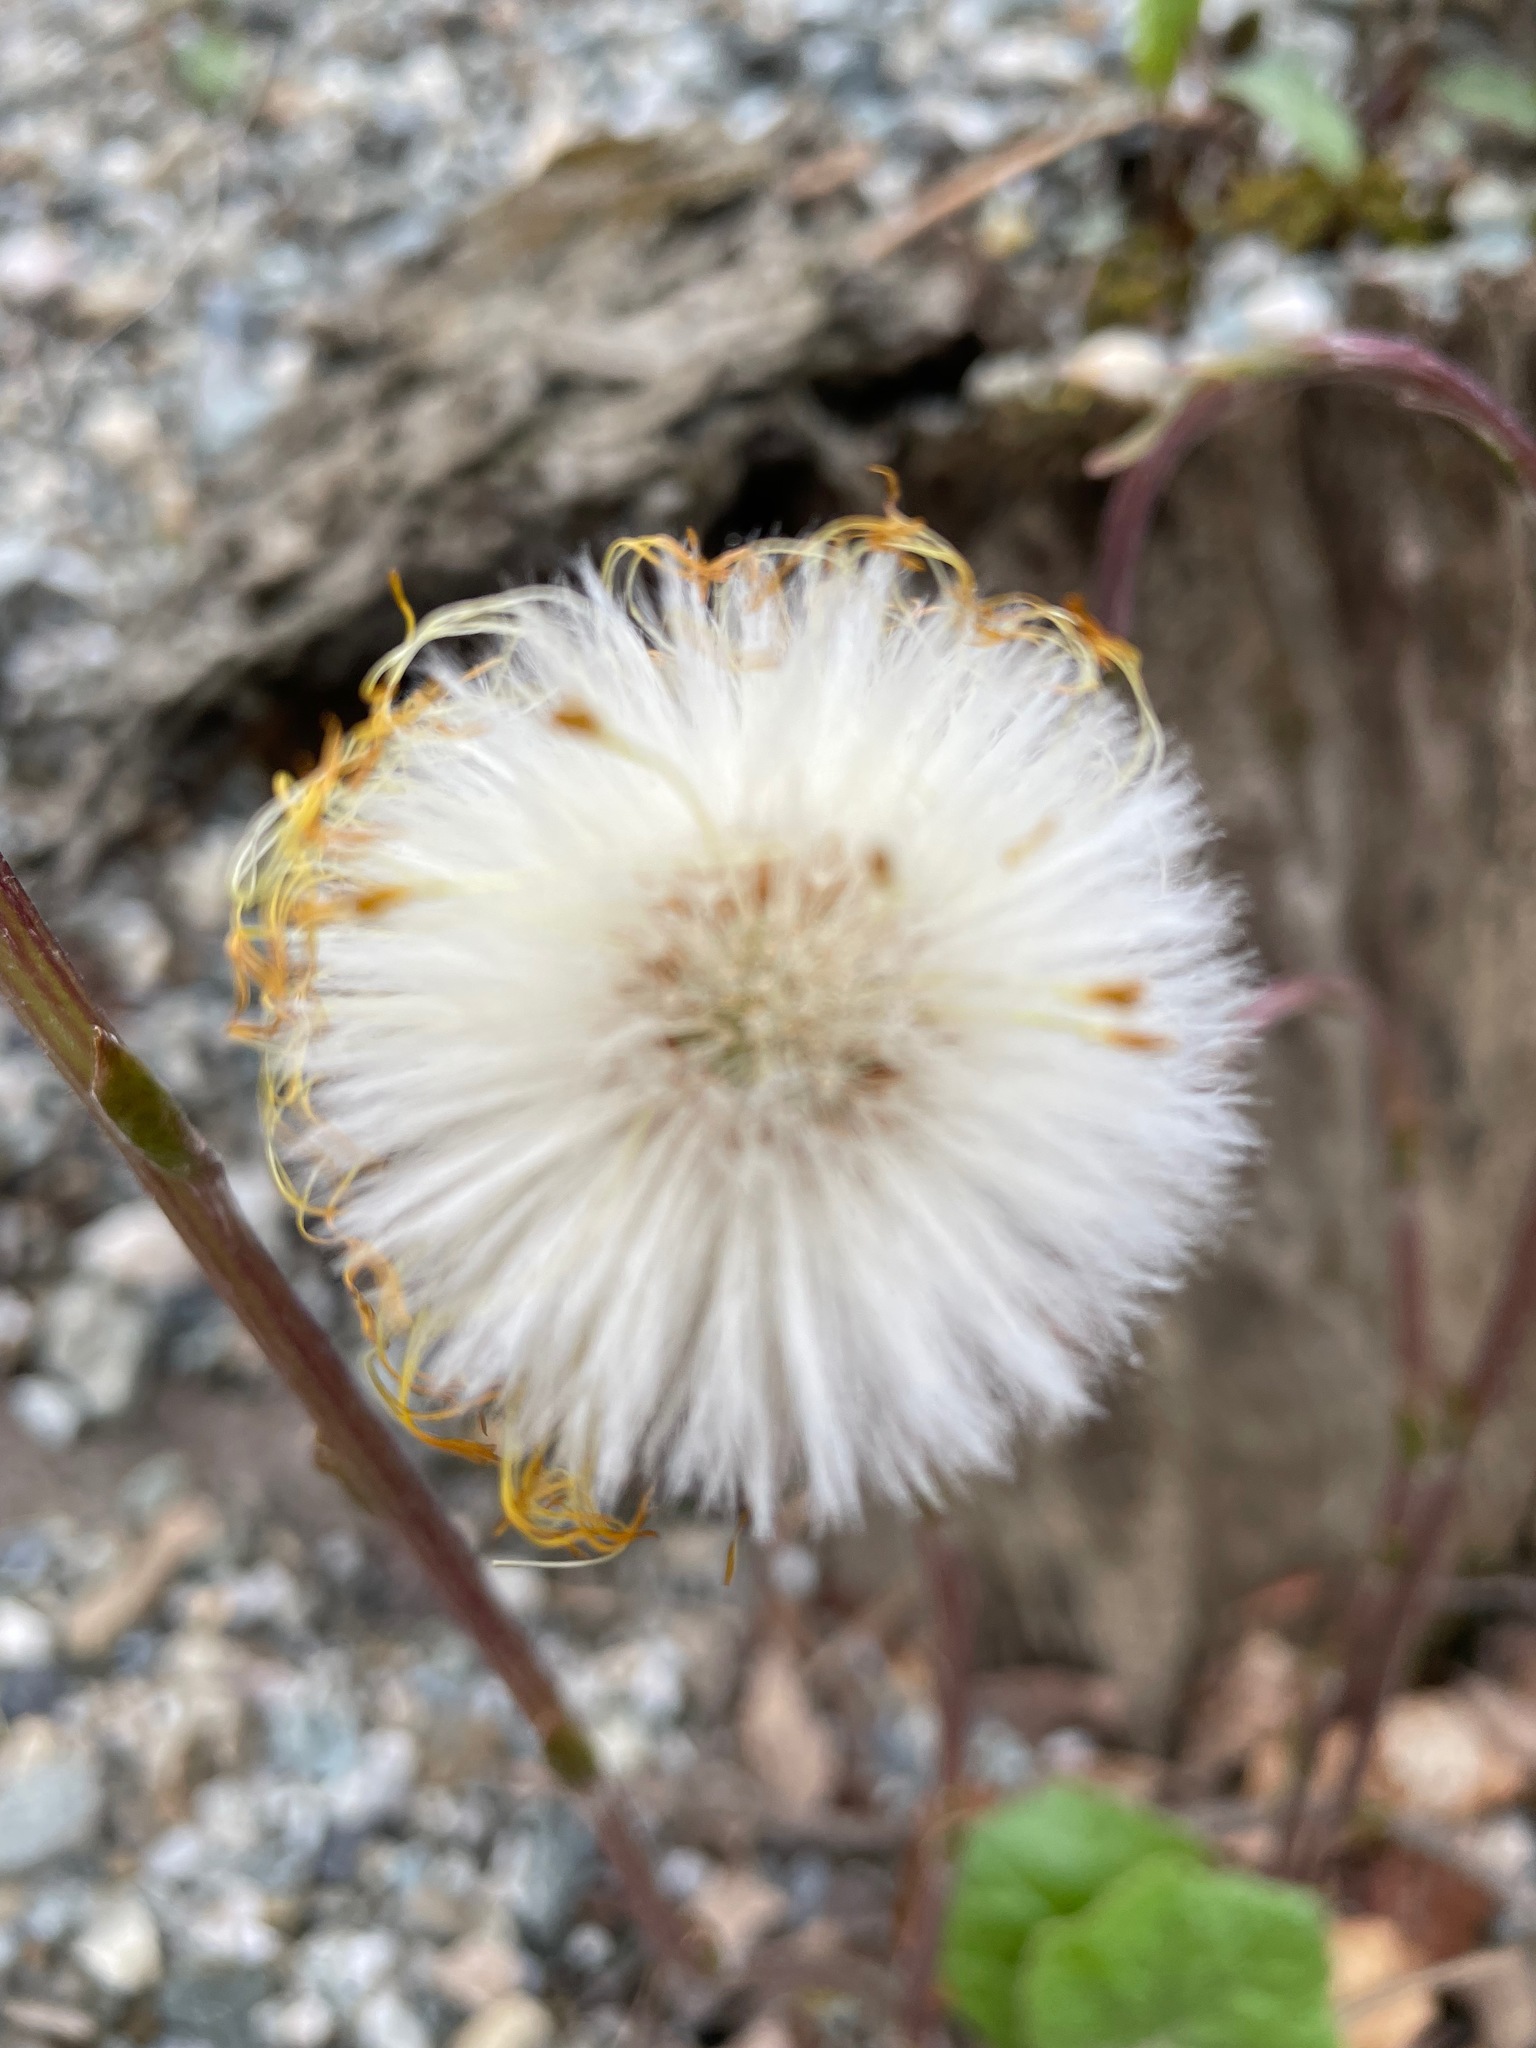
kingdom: Plantae
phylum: Tracheophyta
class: Magnoliopsida
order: Asterales
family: Asteraceae
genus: Tussilago
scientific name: Tussilago farfara
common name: Coltsfoot
